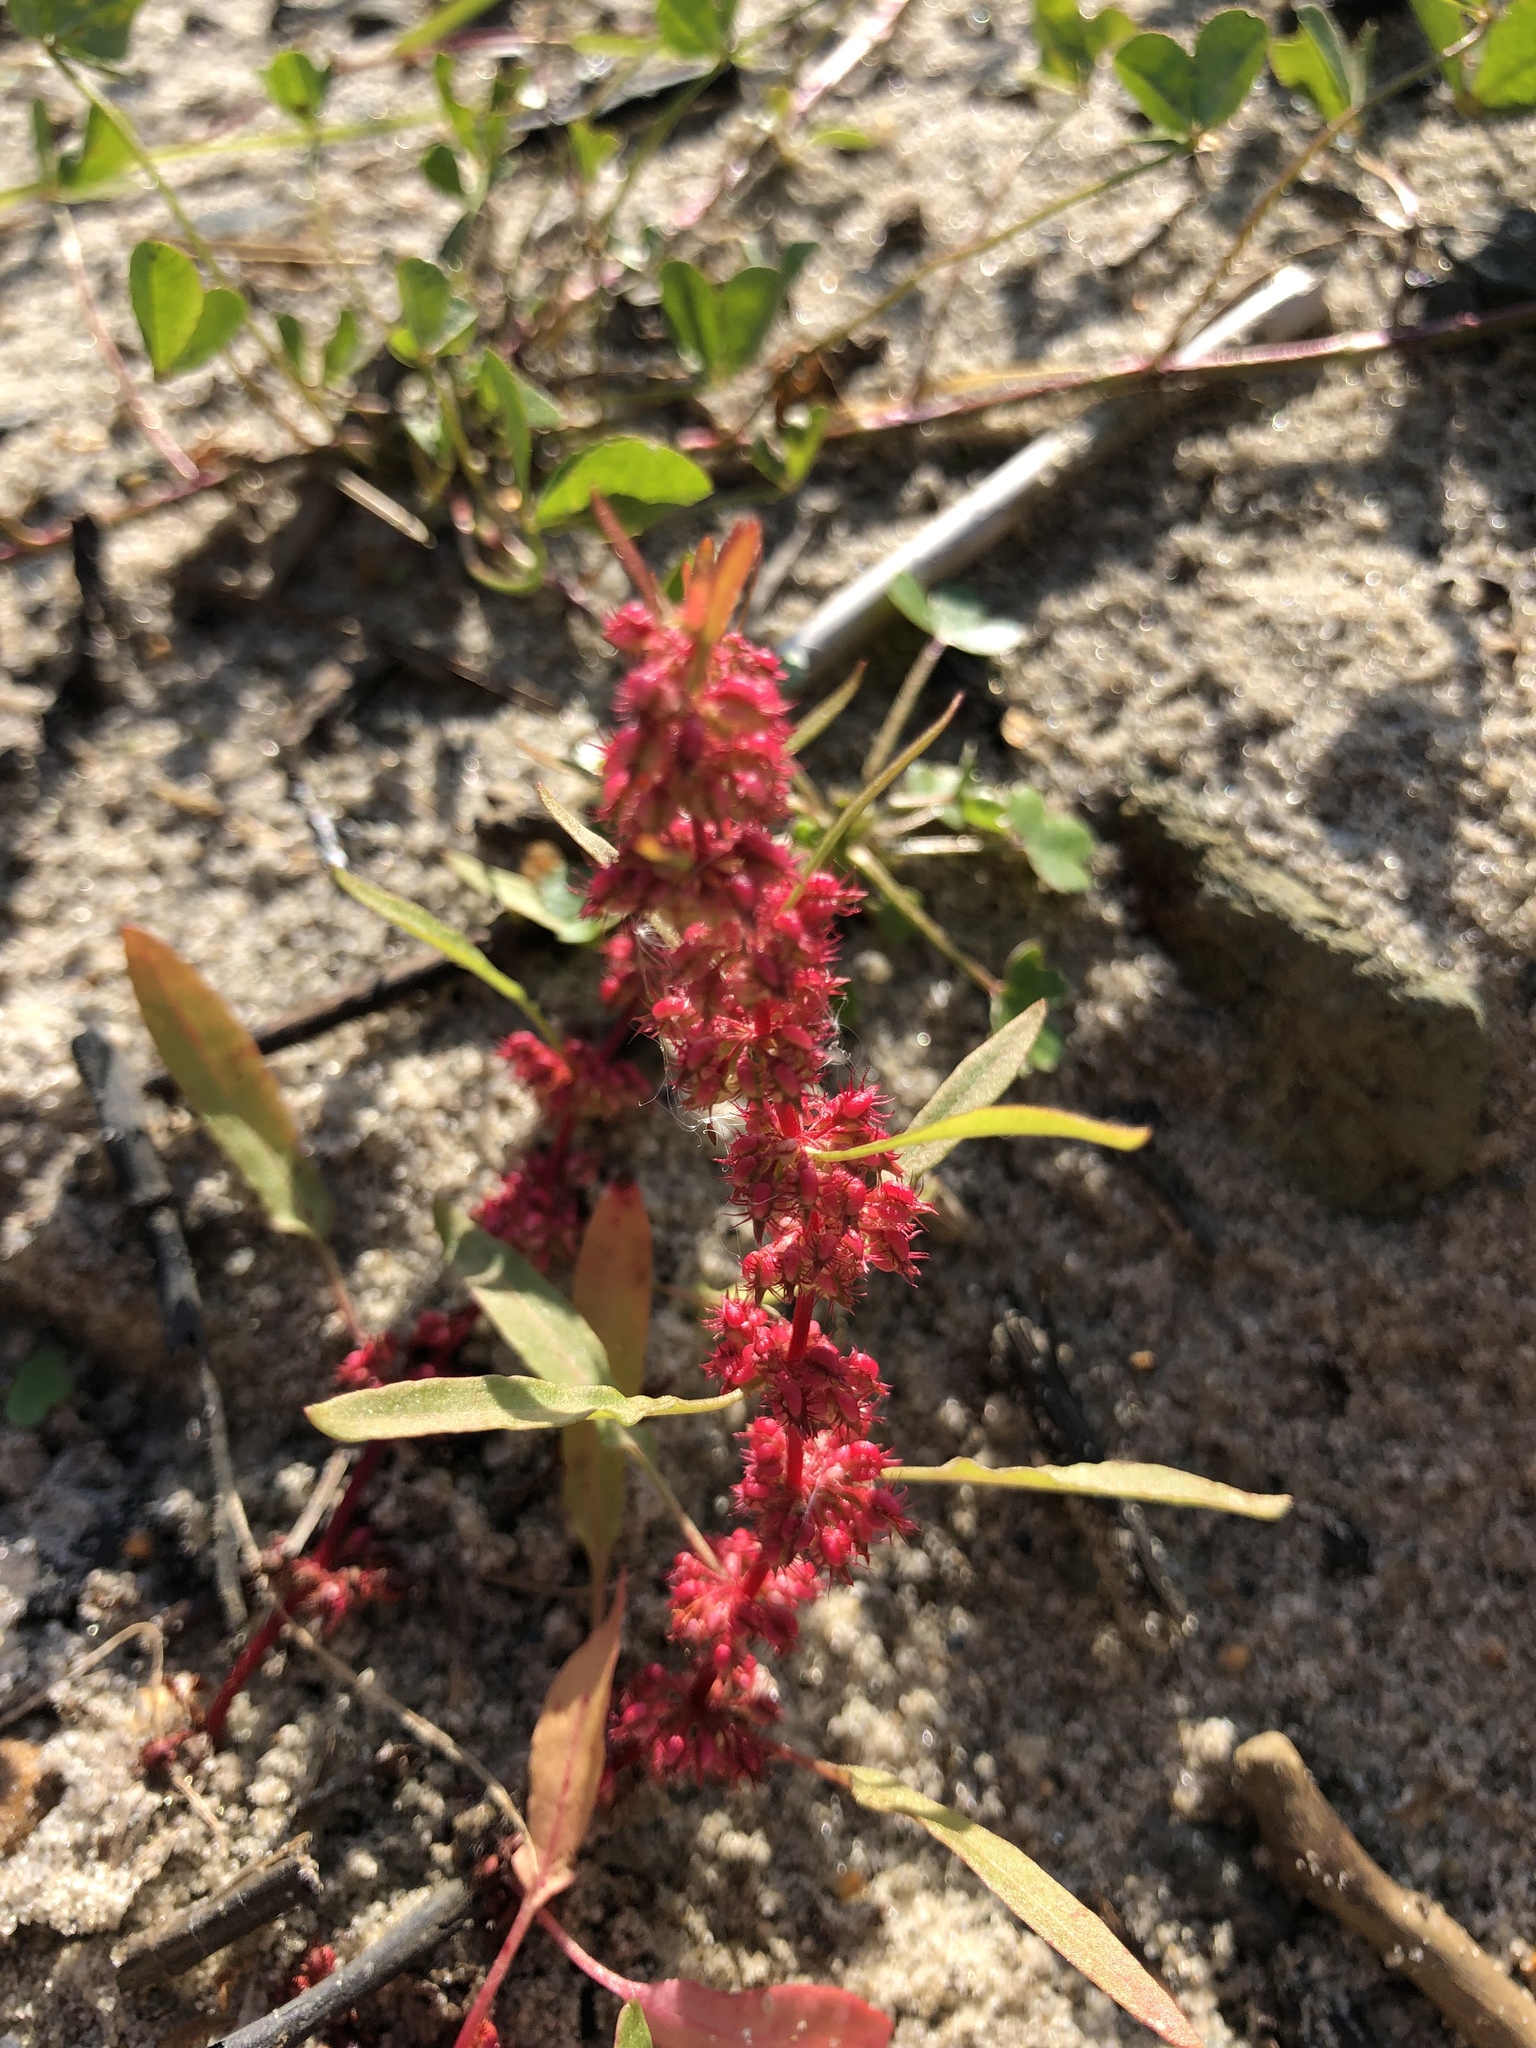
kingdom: Plantae
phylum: Tracheophyta
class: Magnoliopsida
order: Caryophyllales
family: Polygonaceae
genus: Rumex
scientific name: Rumex ucranicus
